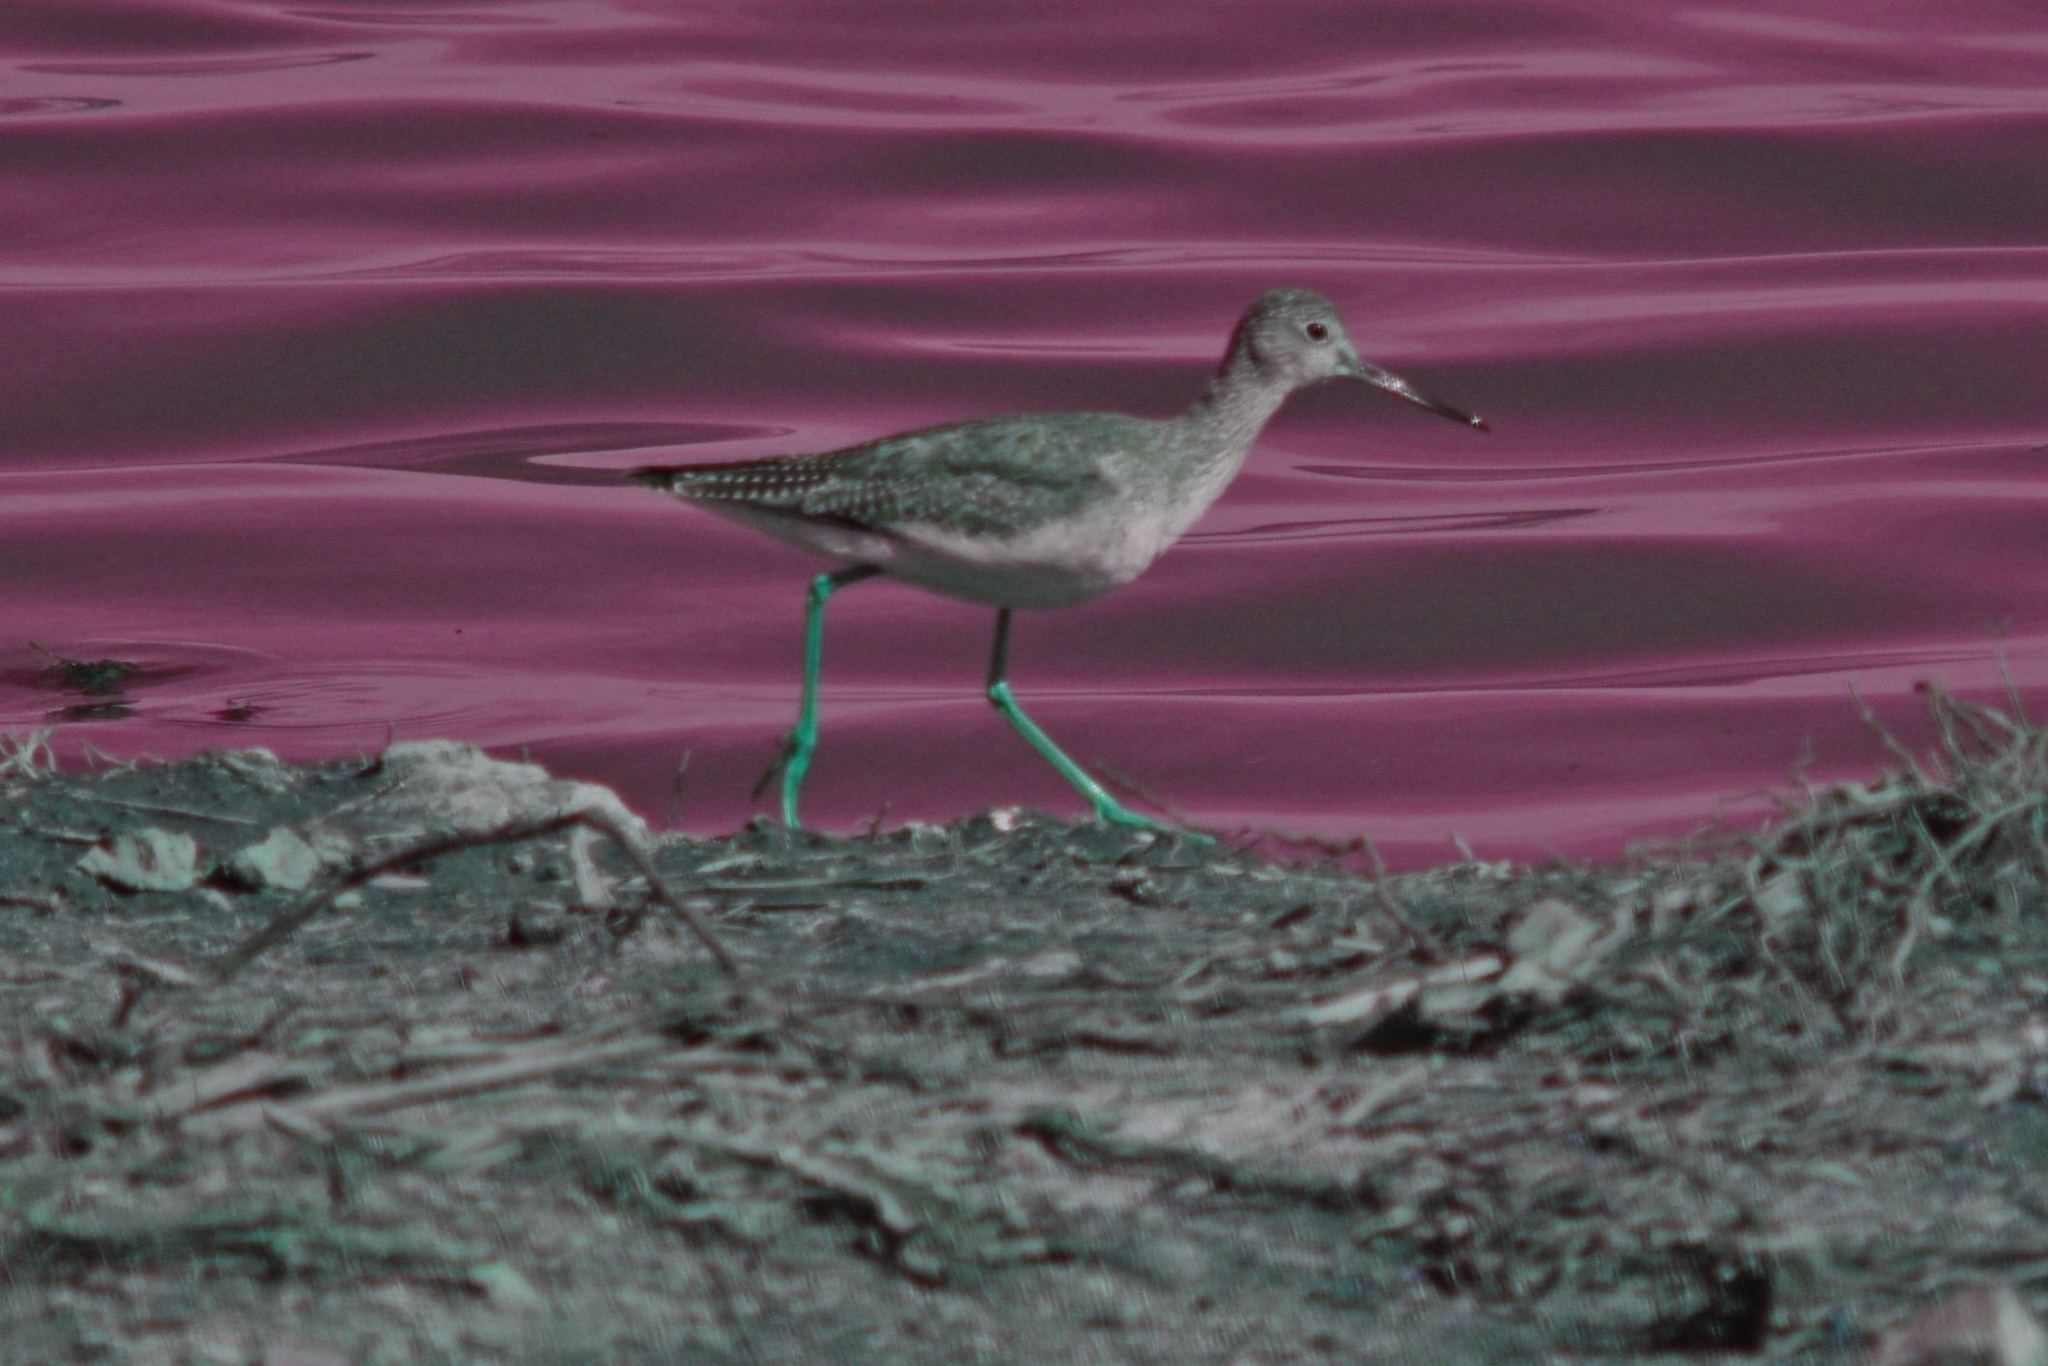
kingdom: Animalia
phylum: Chordata
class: Aves
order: Charadriiformes
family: Scolopacidae
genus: Tringa
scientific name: Tringa melanoleuca
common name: Greater yellowlegs
